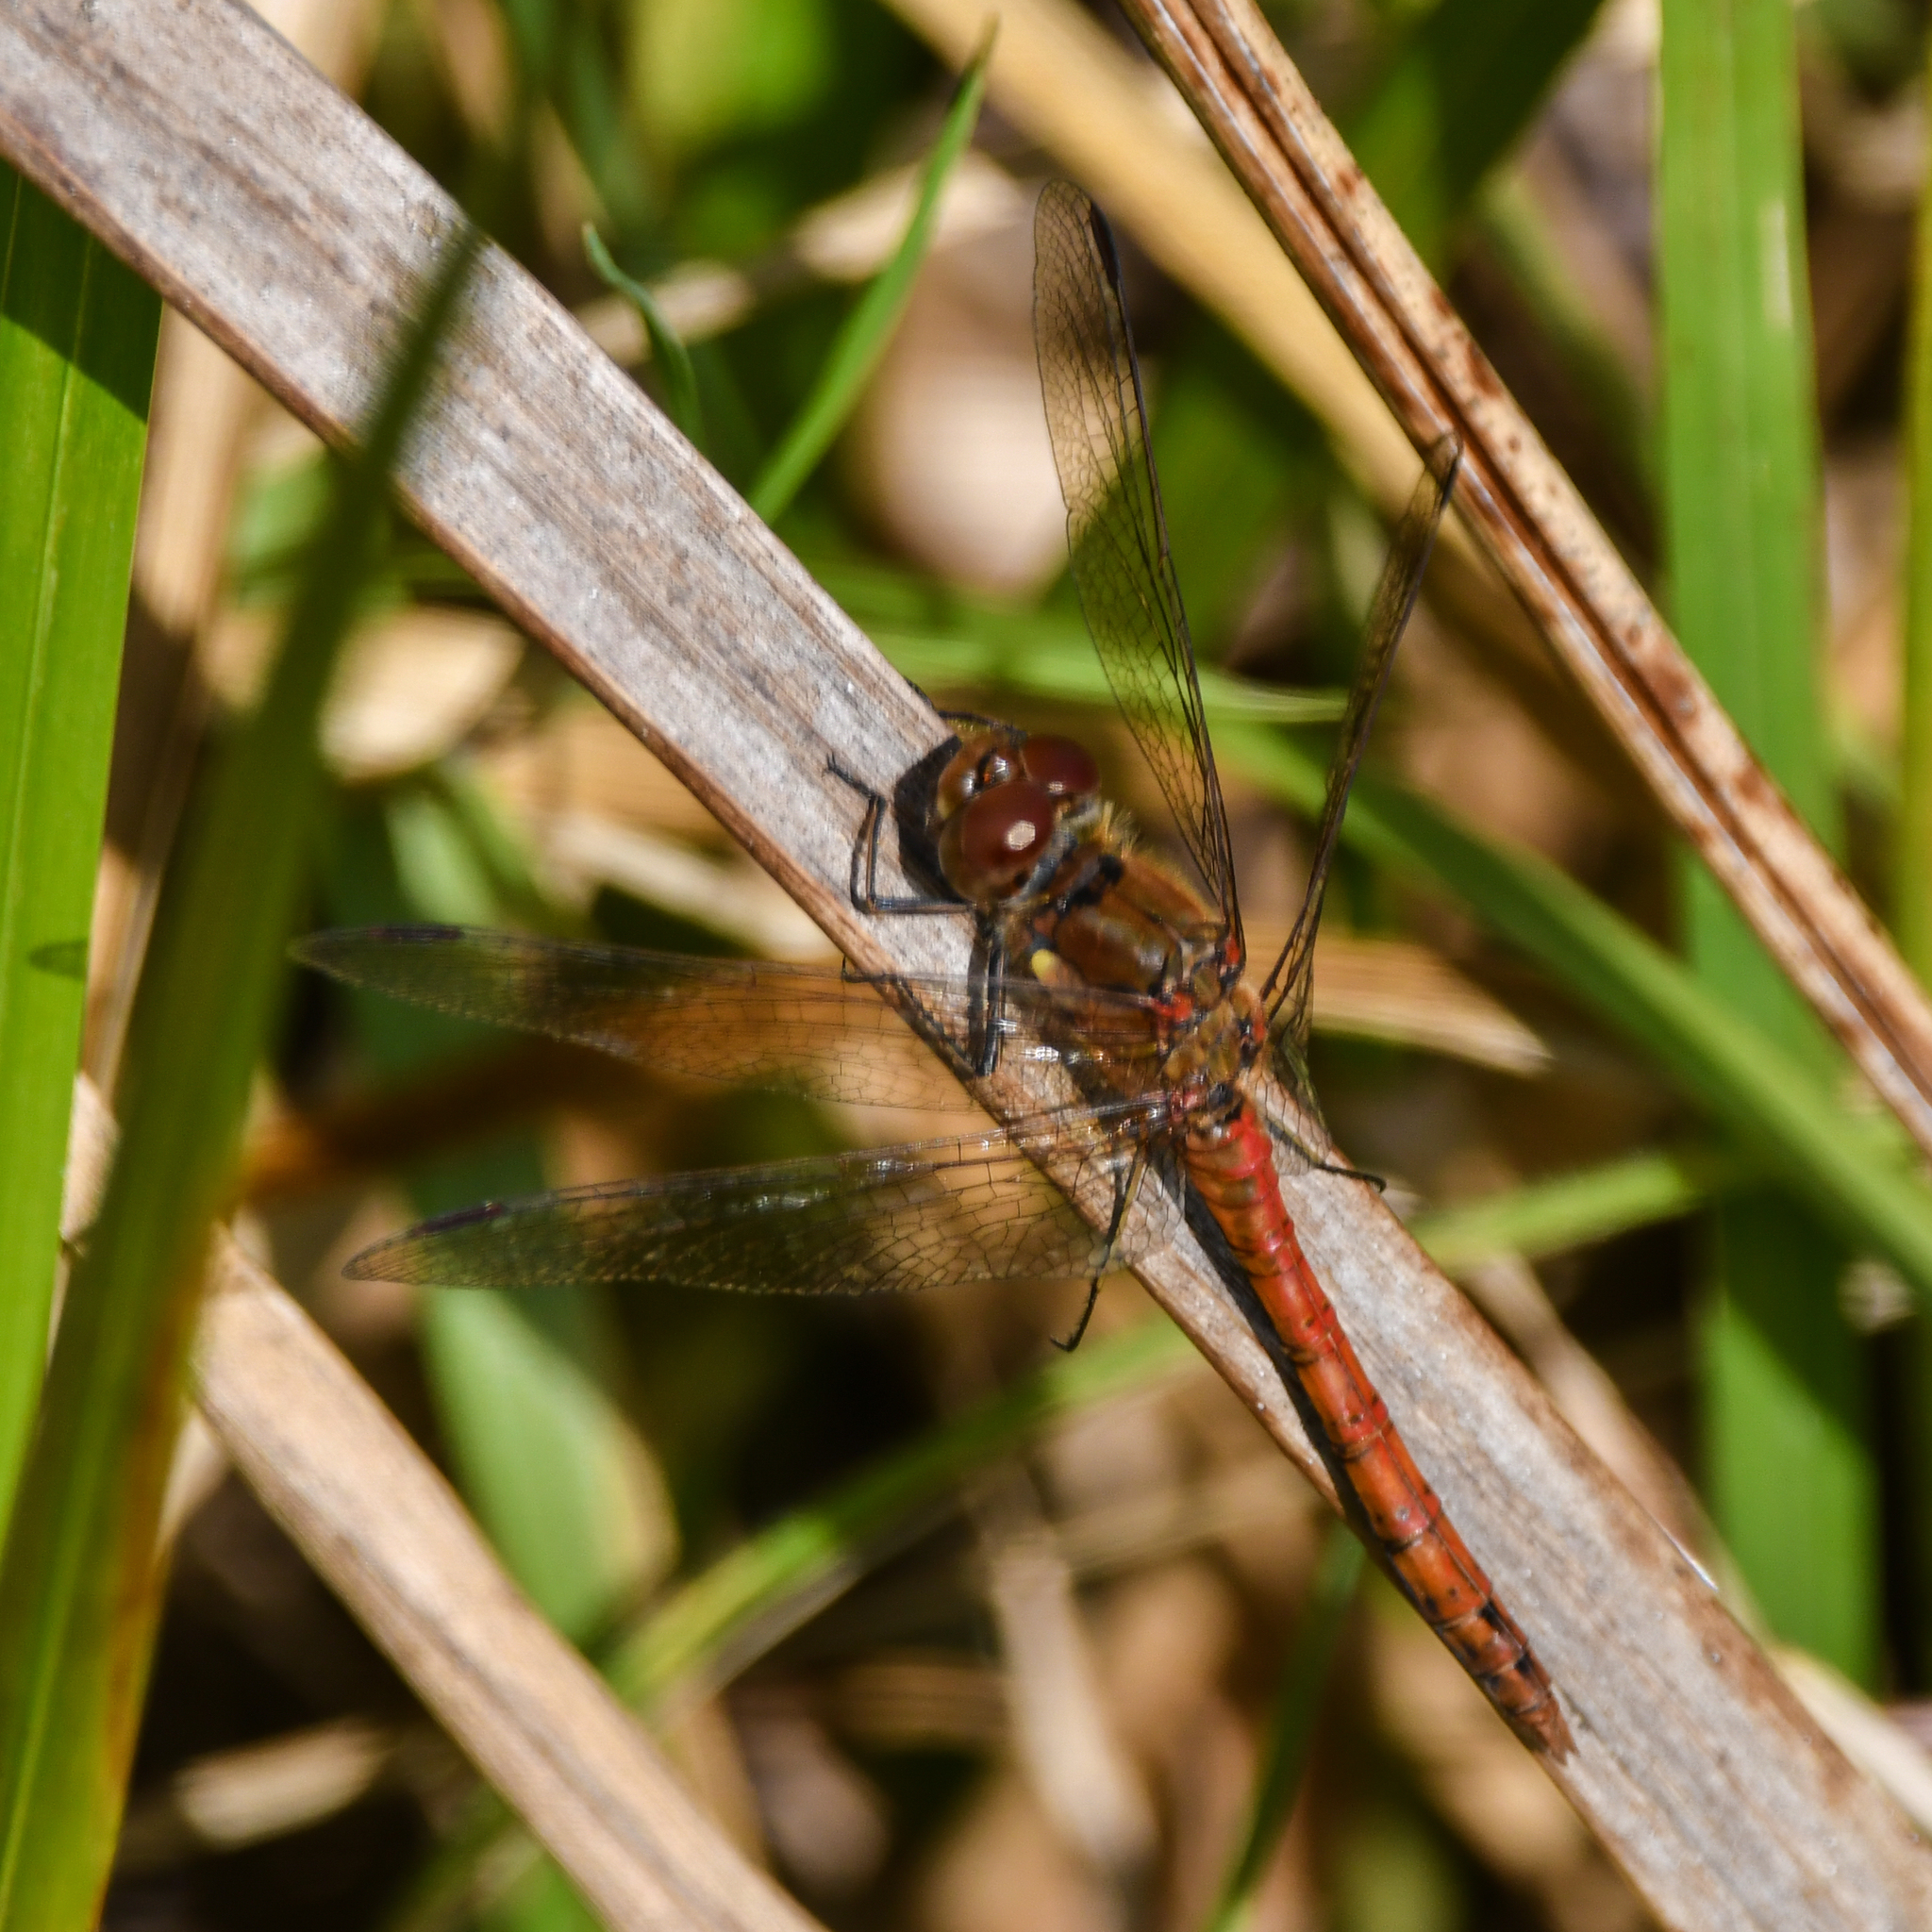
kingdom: Animalia
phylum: Arthropoda
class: Insecta
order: Odonata
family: Libellulidae
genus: Sympetrum
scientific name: Sympetrum striolatum
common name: Common darter
